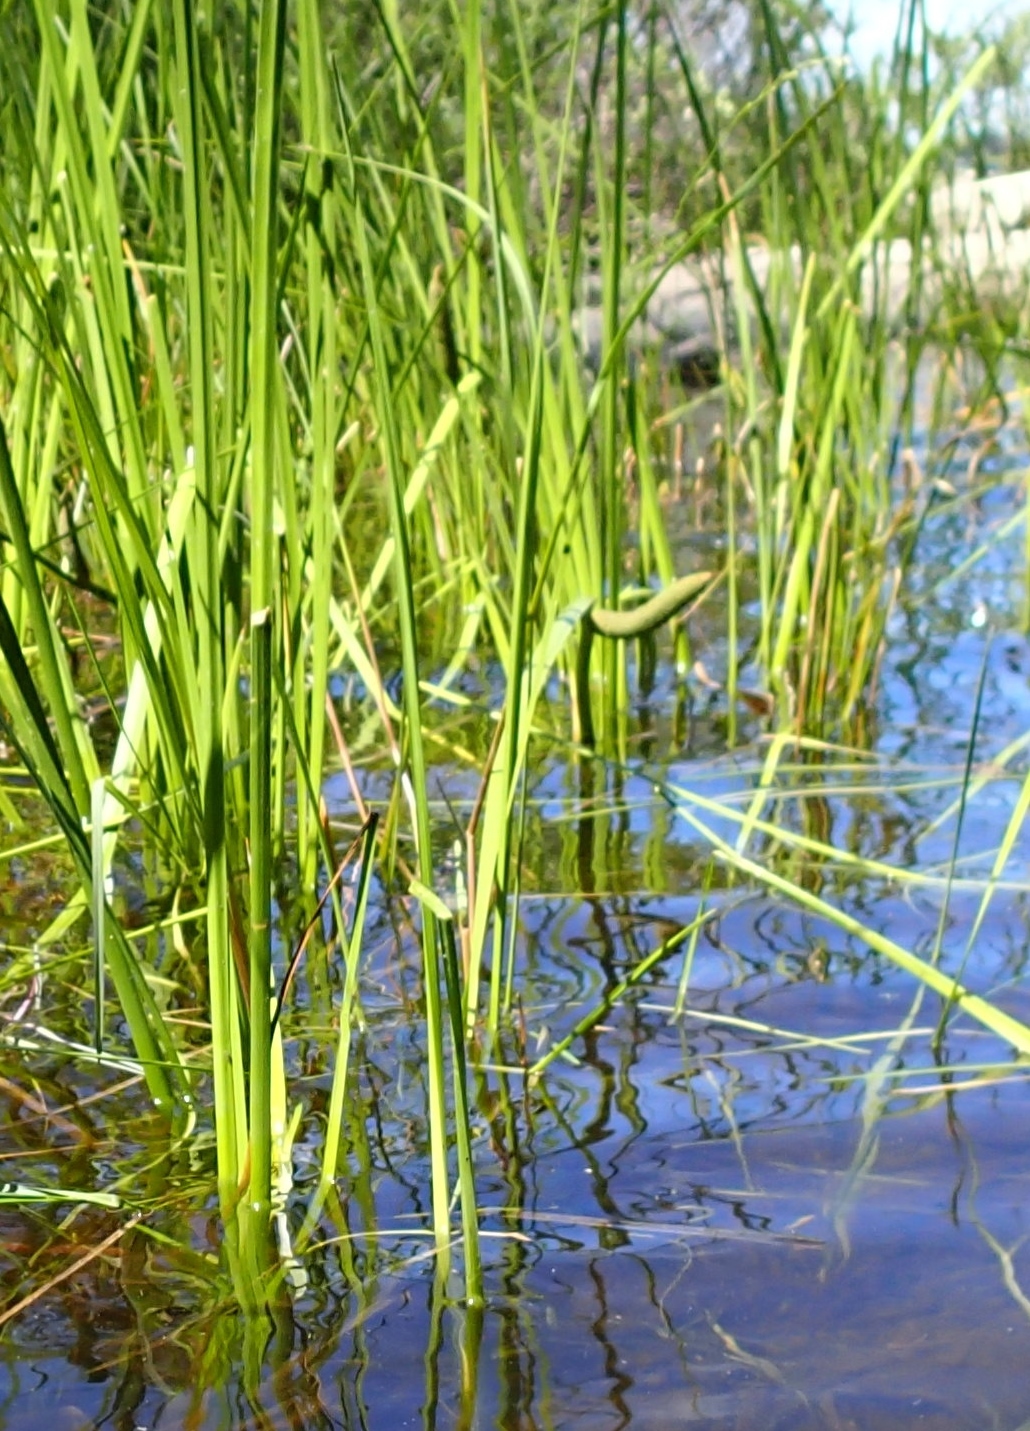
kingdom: Plantae
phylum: Tracheophyta
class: Liliopsida
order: Acorales
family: Acoraceae
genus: Acorus
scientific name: Acorus calamus
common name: Sweet-flag
